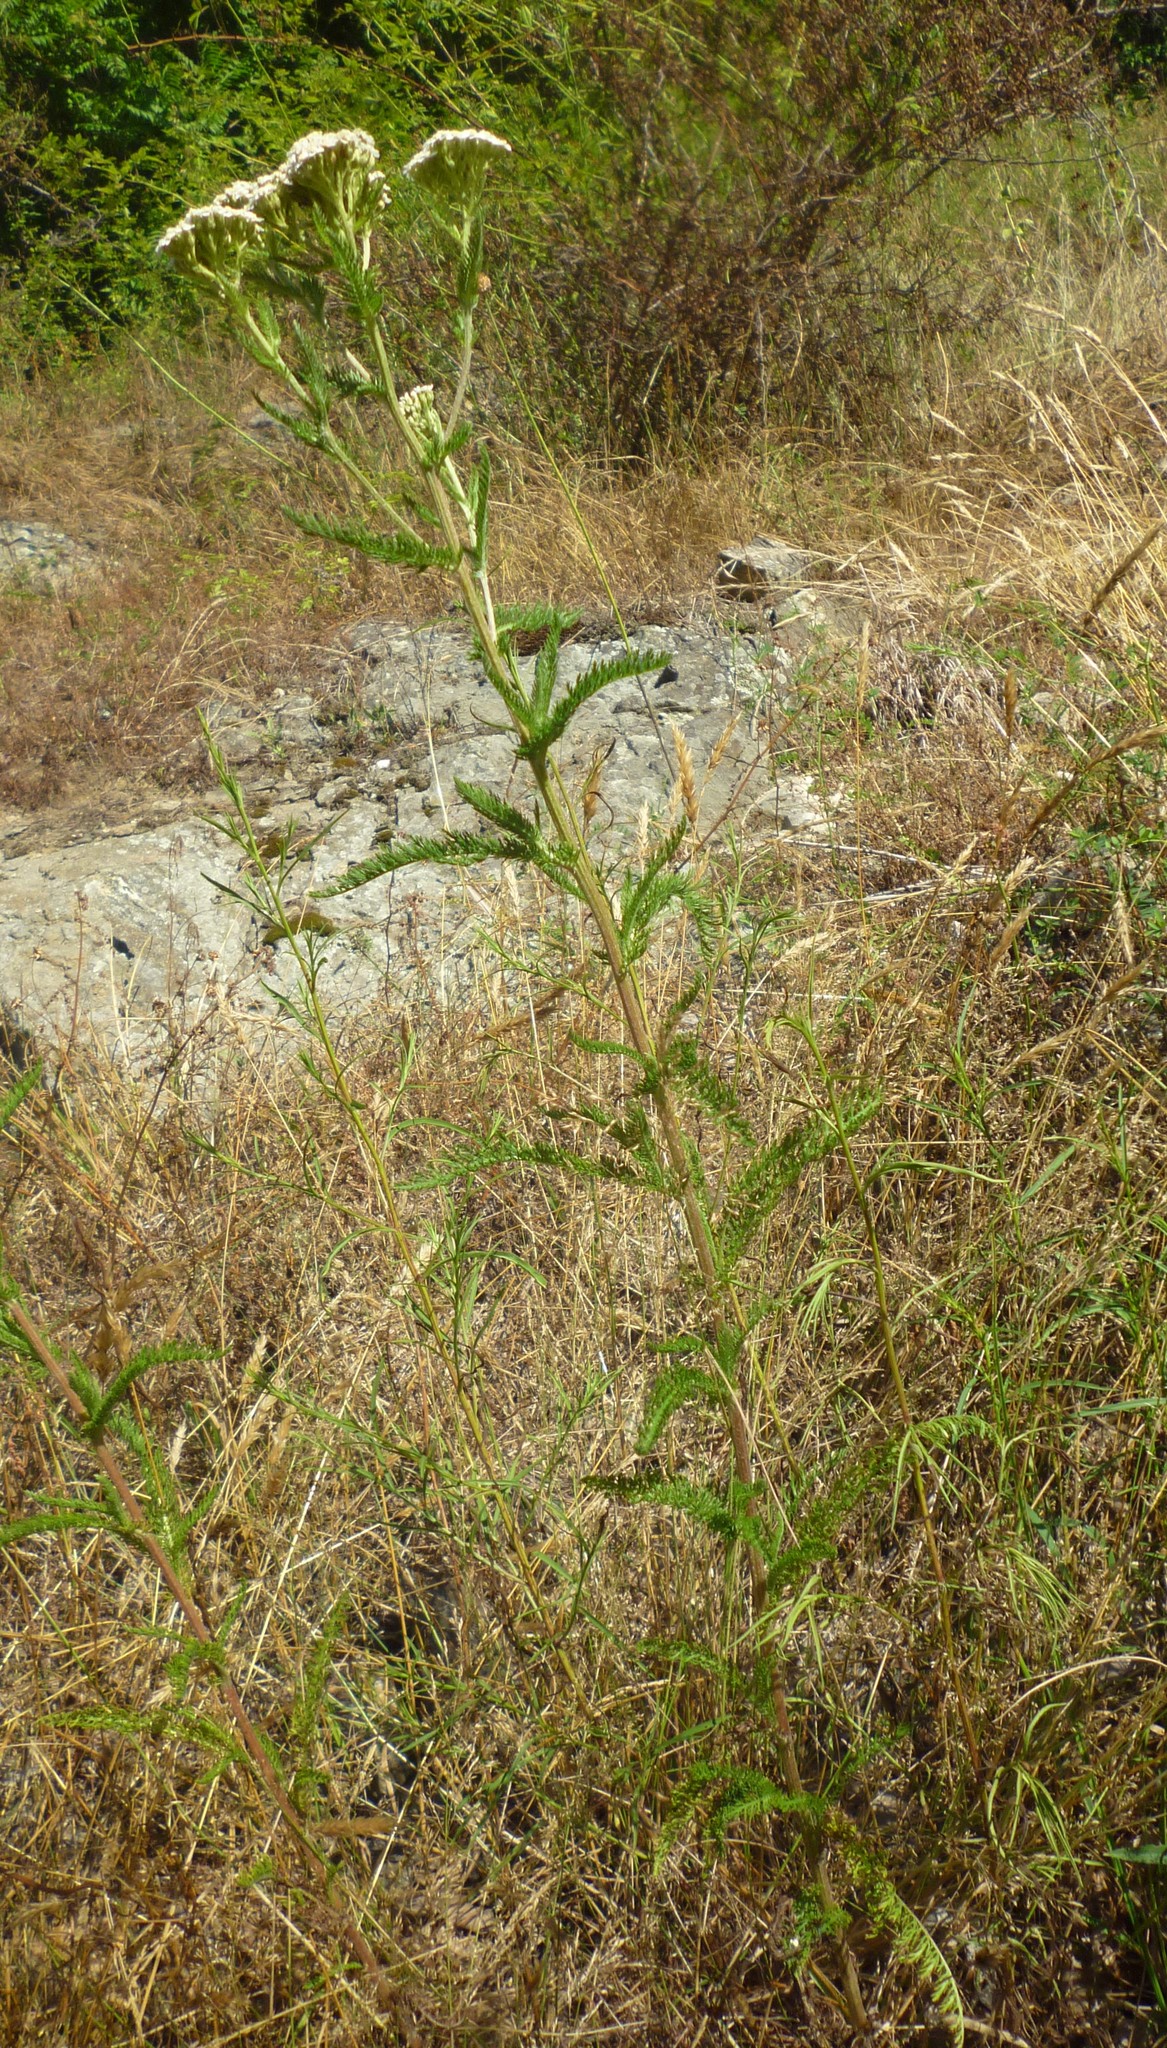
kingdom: Plantae
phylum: Tracheophyta
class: Magnoliopsida
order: Asterales
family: Asteraceae
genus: Achillea
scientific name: Achillea millefolium
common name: Yarrow
